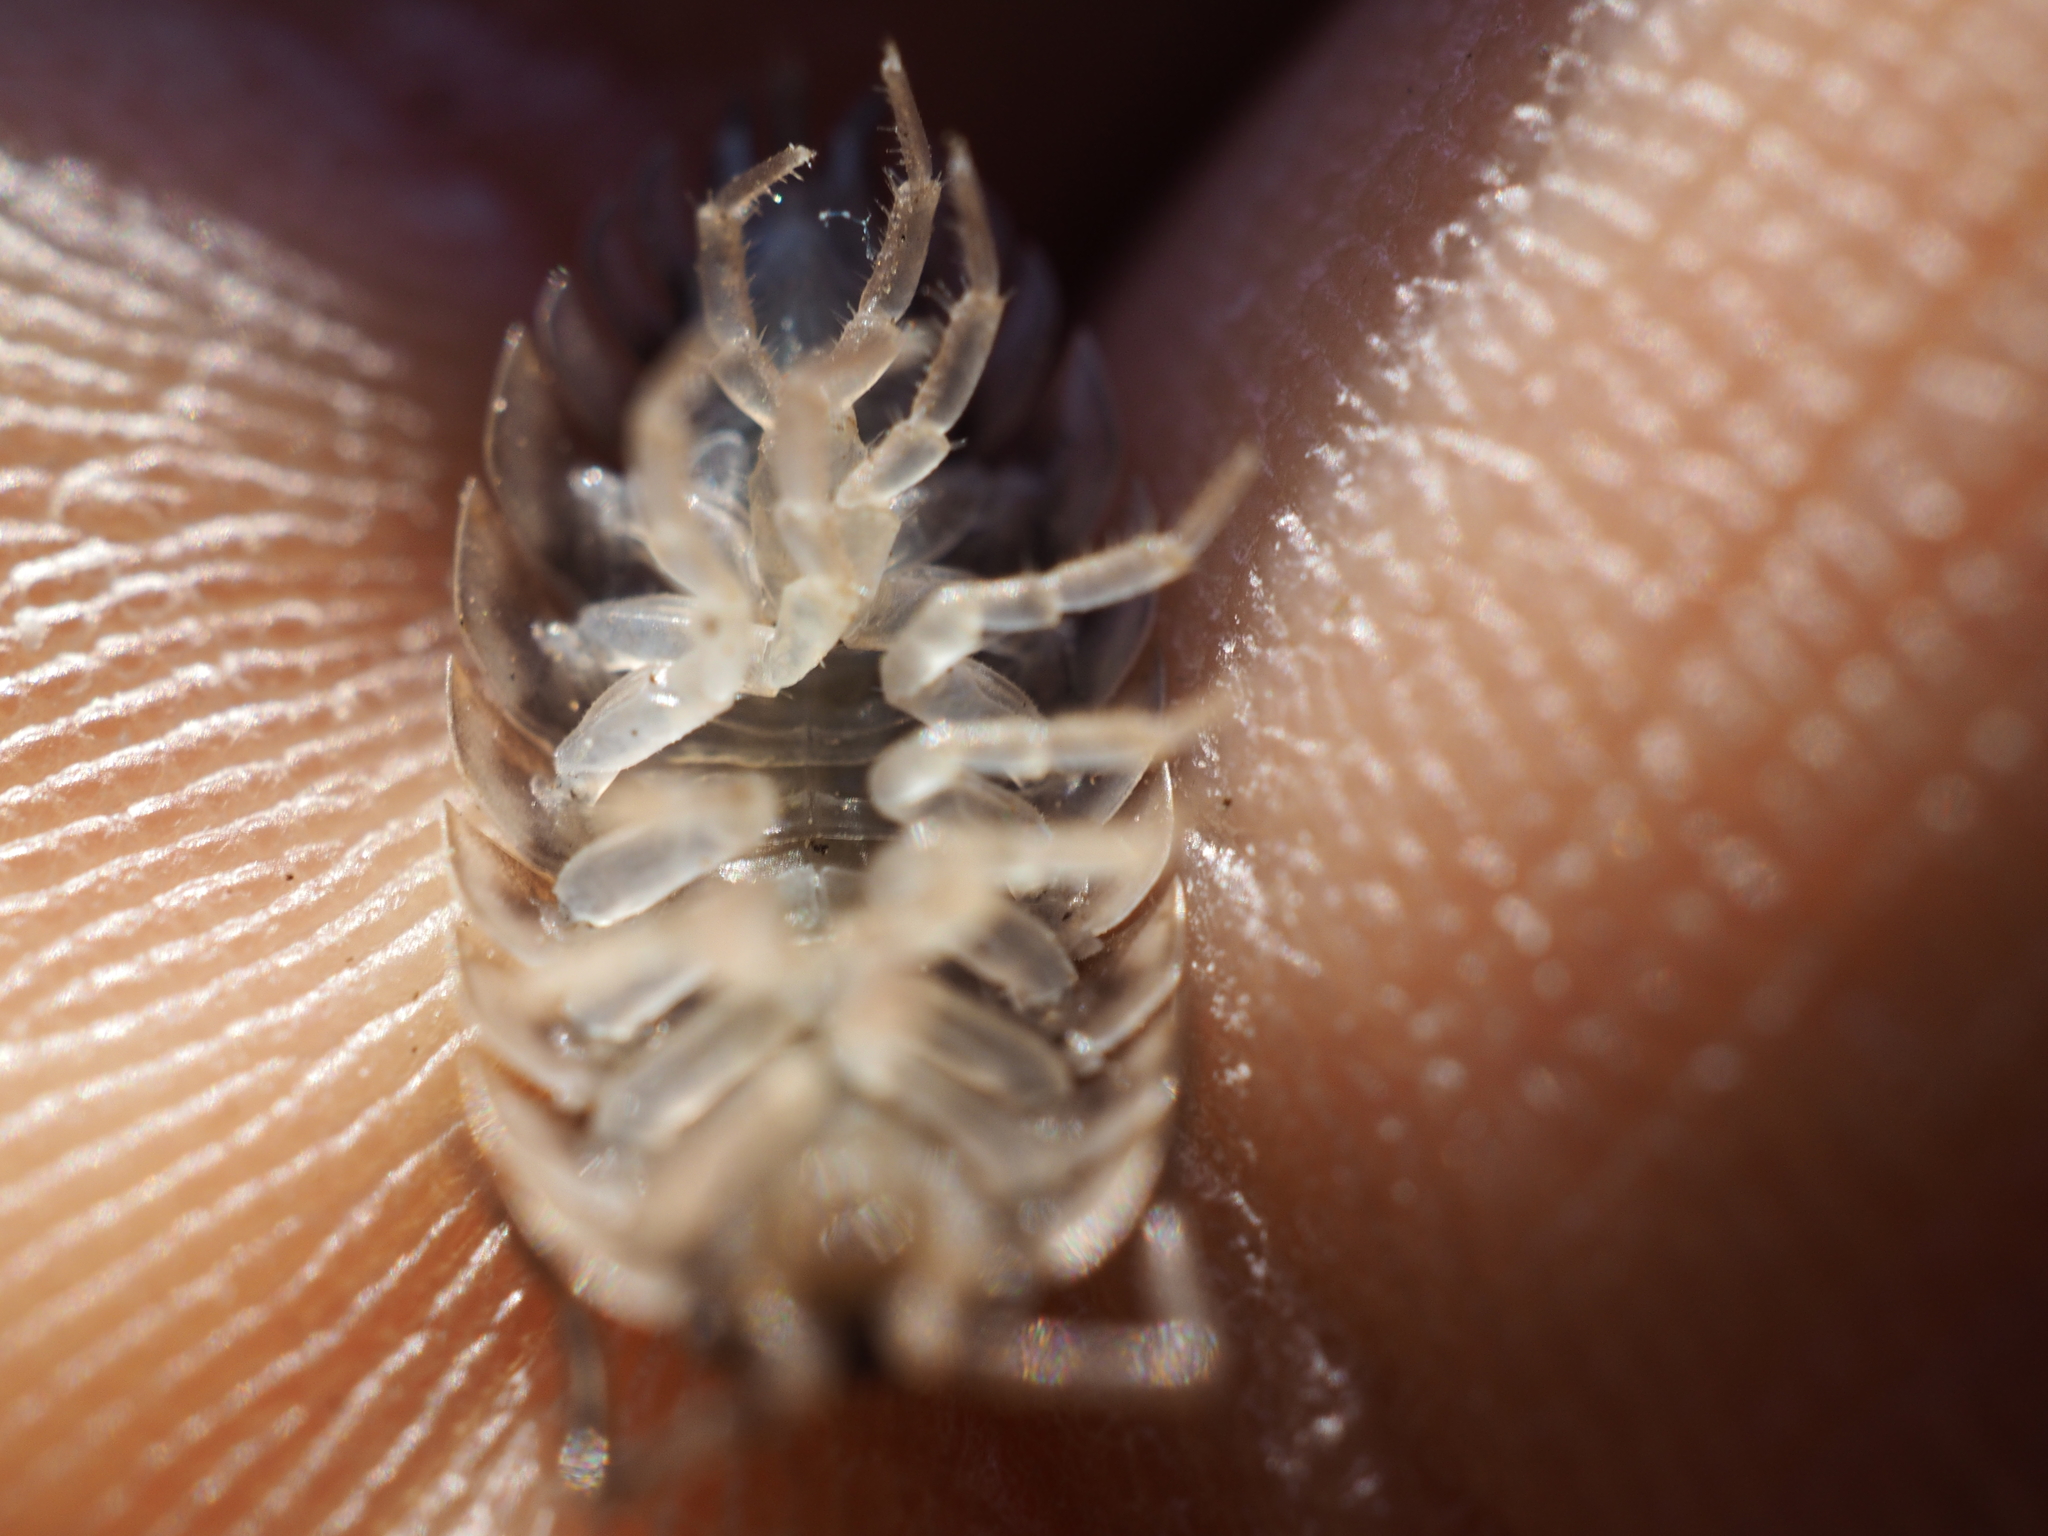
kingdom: Animalia
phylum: Arthropoda
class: Malacostraca
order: Isopoda
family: Oniscidae
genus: Oniscus
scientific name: Oniscus asellus
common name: Common shiny woodlouse
